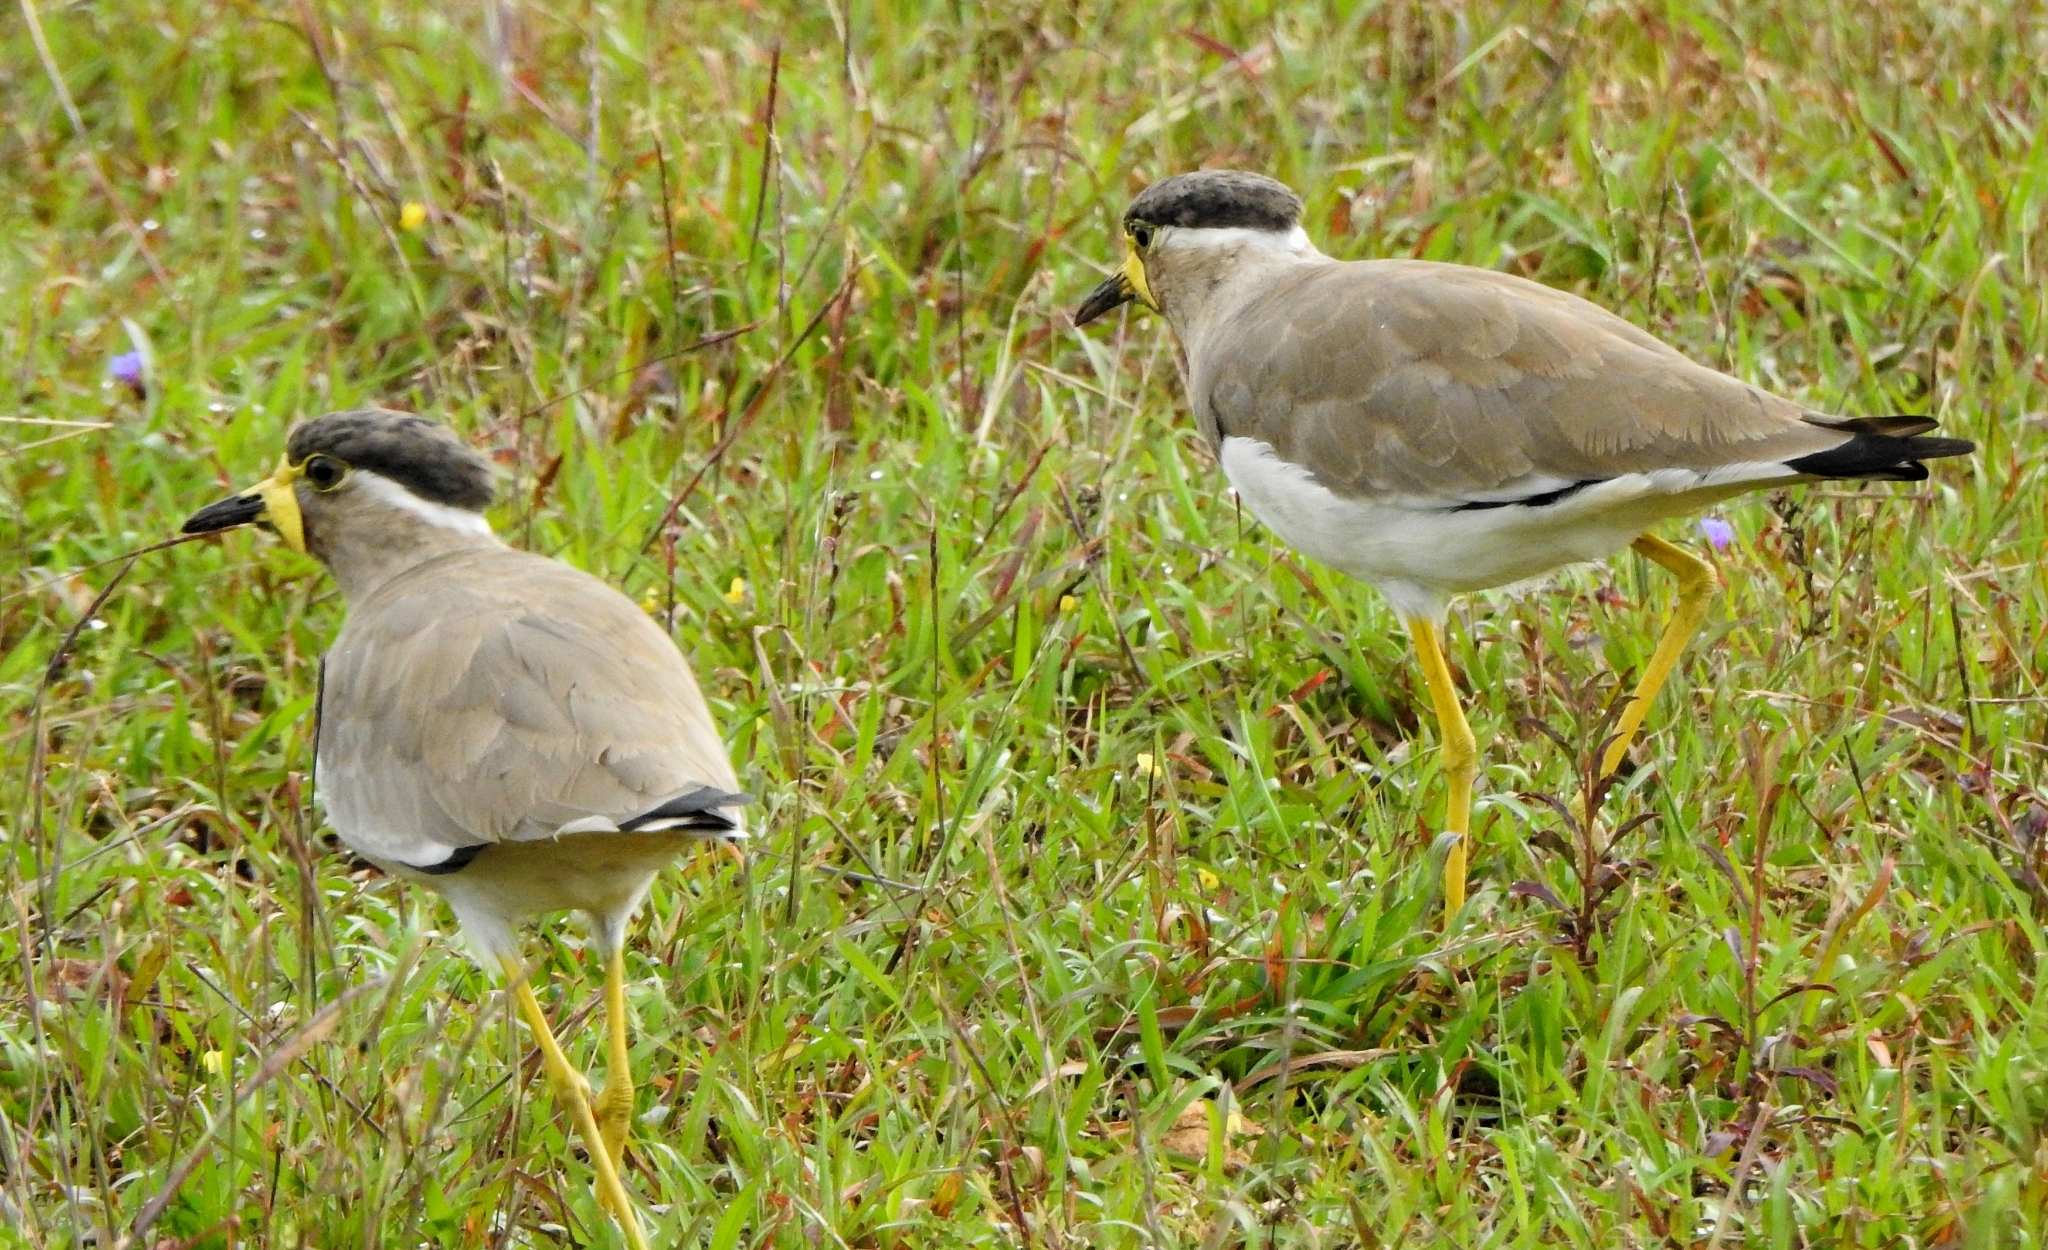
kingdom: Animalia
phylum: Chordata
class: Aves
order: Charadriiformes
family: Charadriidae
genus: Vanellus
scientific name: Vanellus malabaricus
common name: Yellow-wattled lapwing
